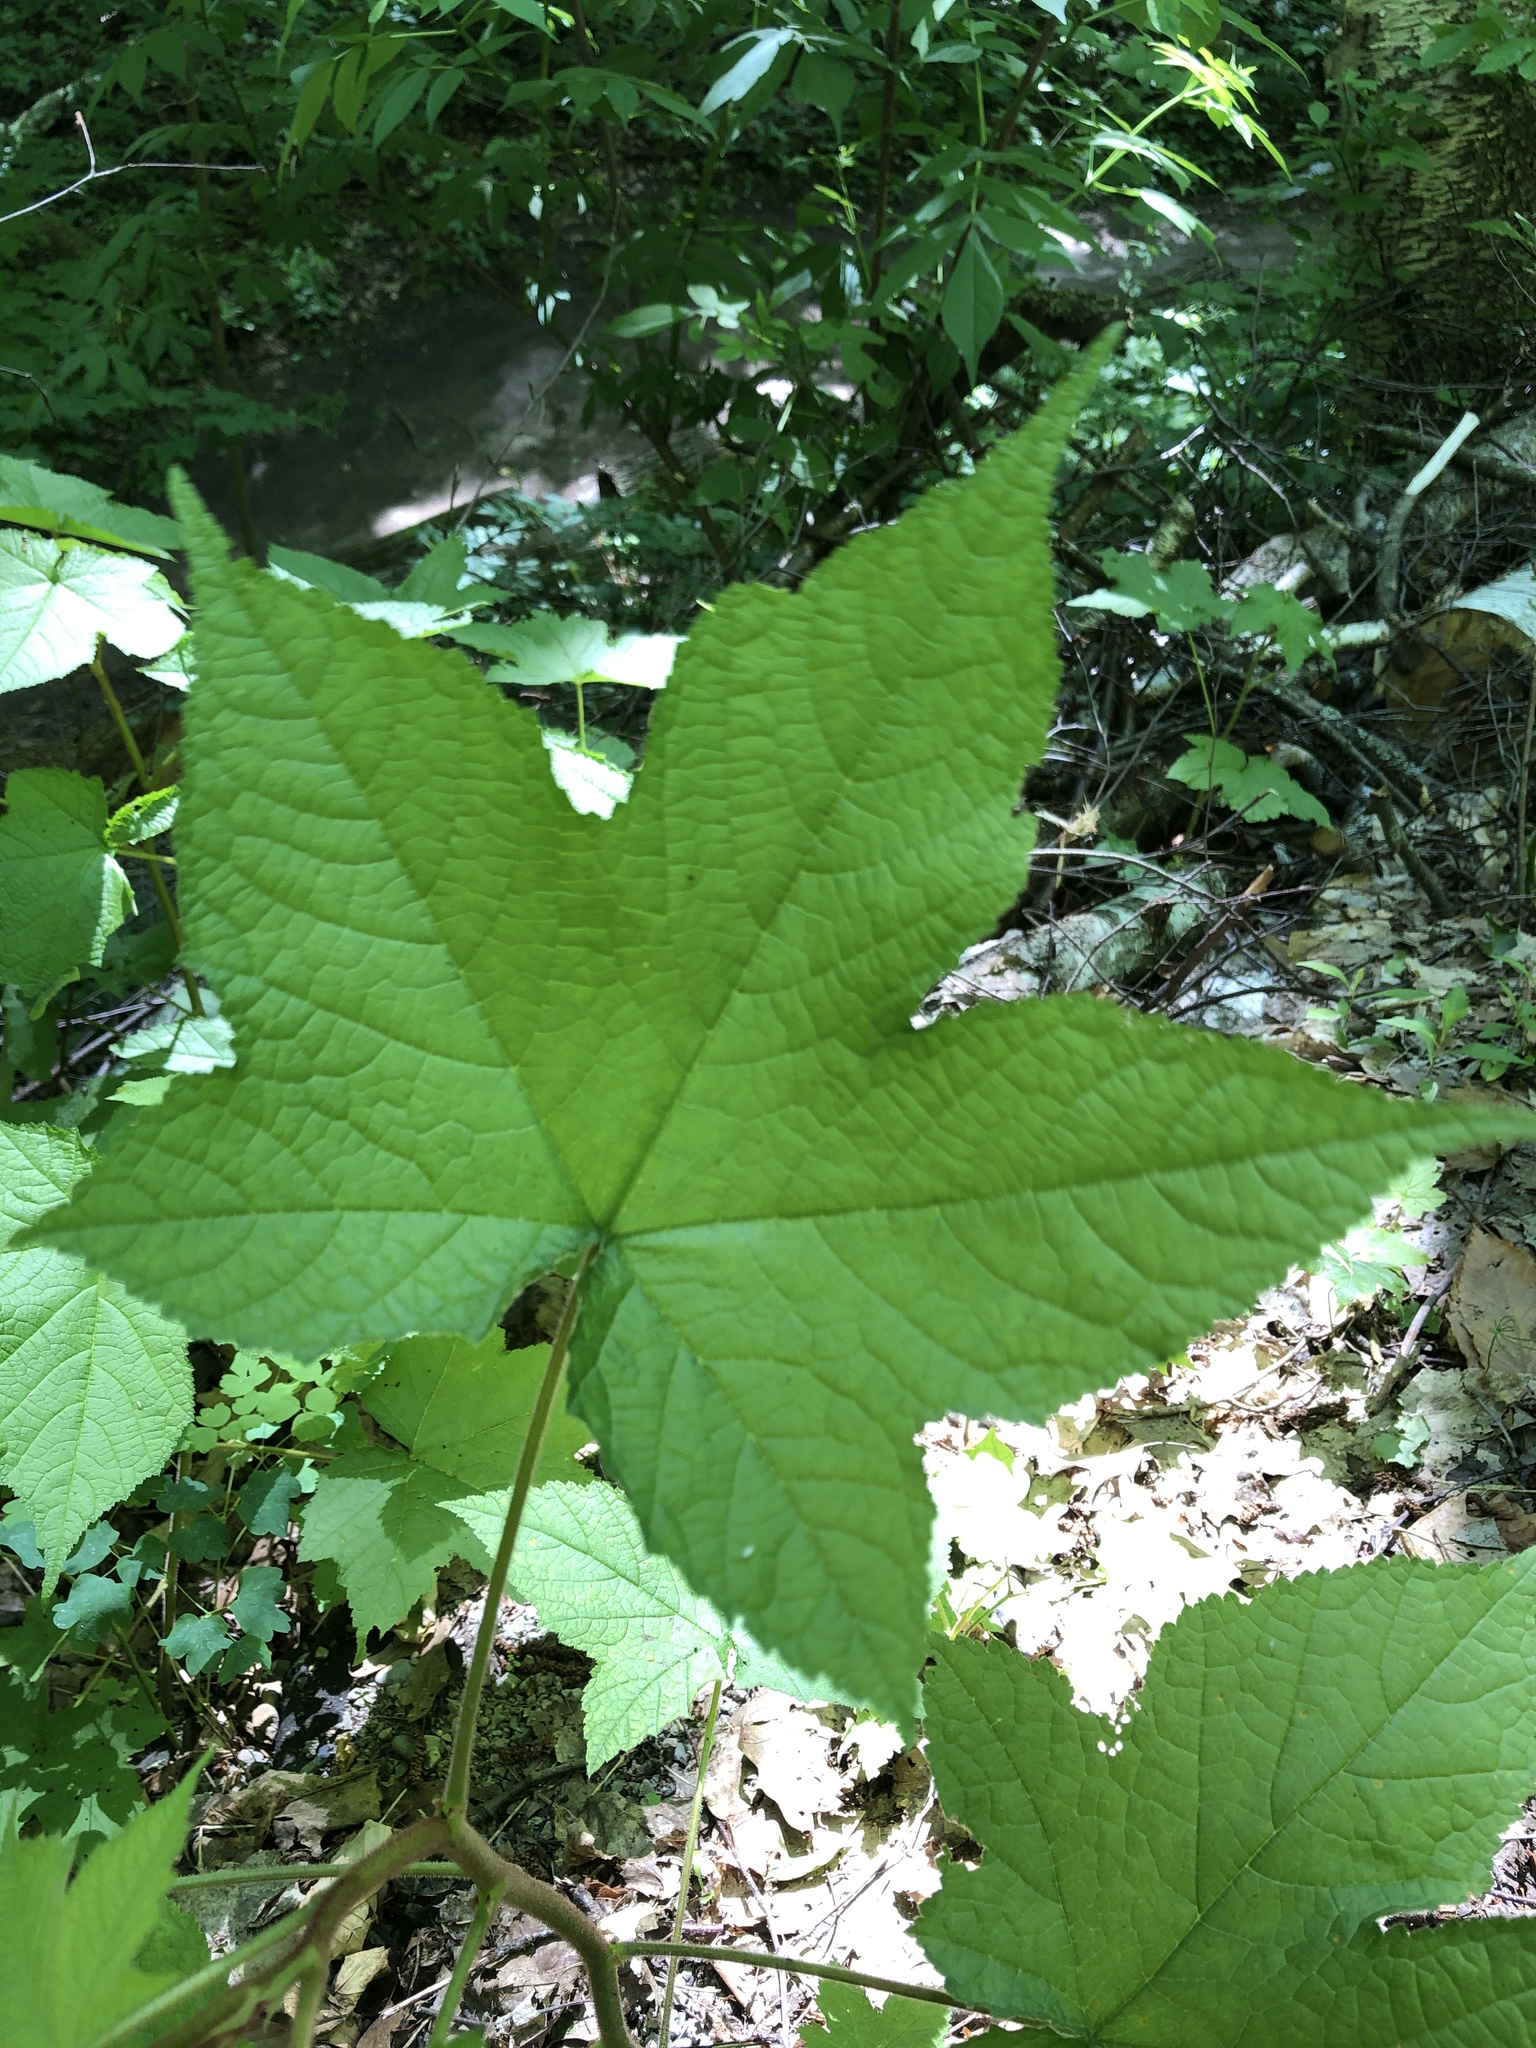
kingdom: Plantae
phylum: Tracheophyta
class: Magnoliopsida
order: Rosales
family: Rosaceae
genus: Rubus
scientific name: Rubus odoratus
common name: Purple-flowered raspberry
